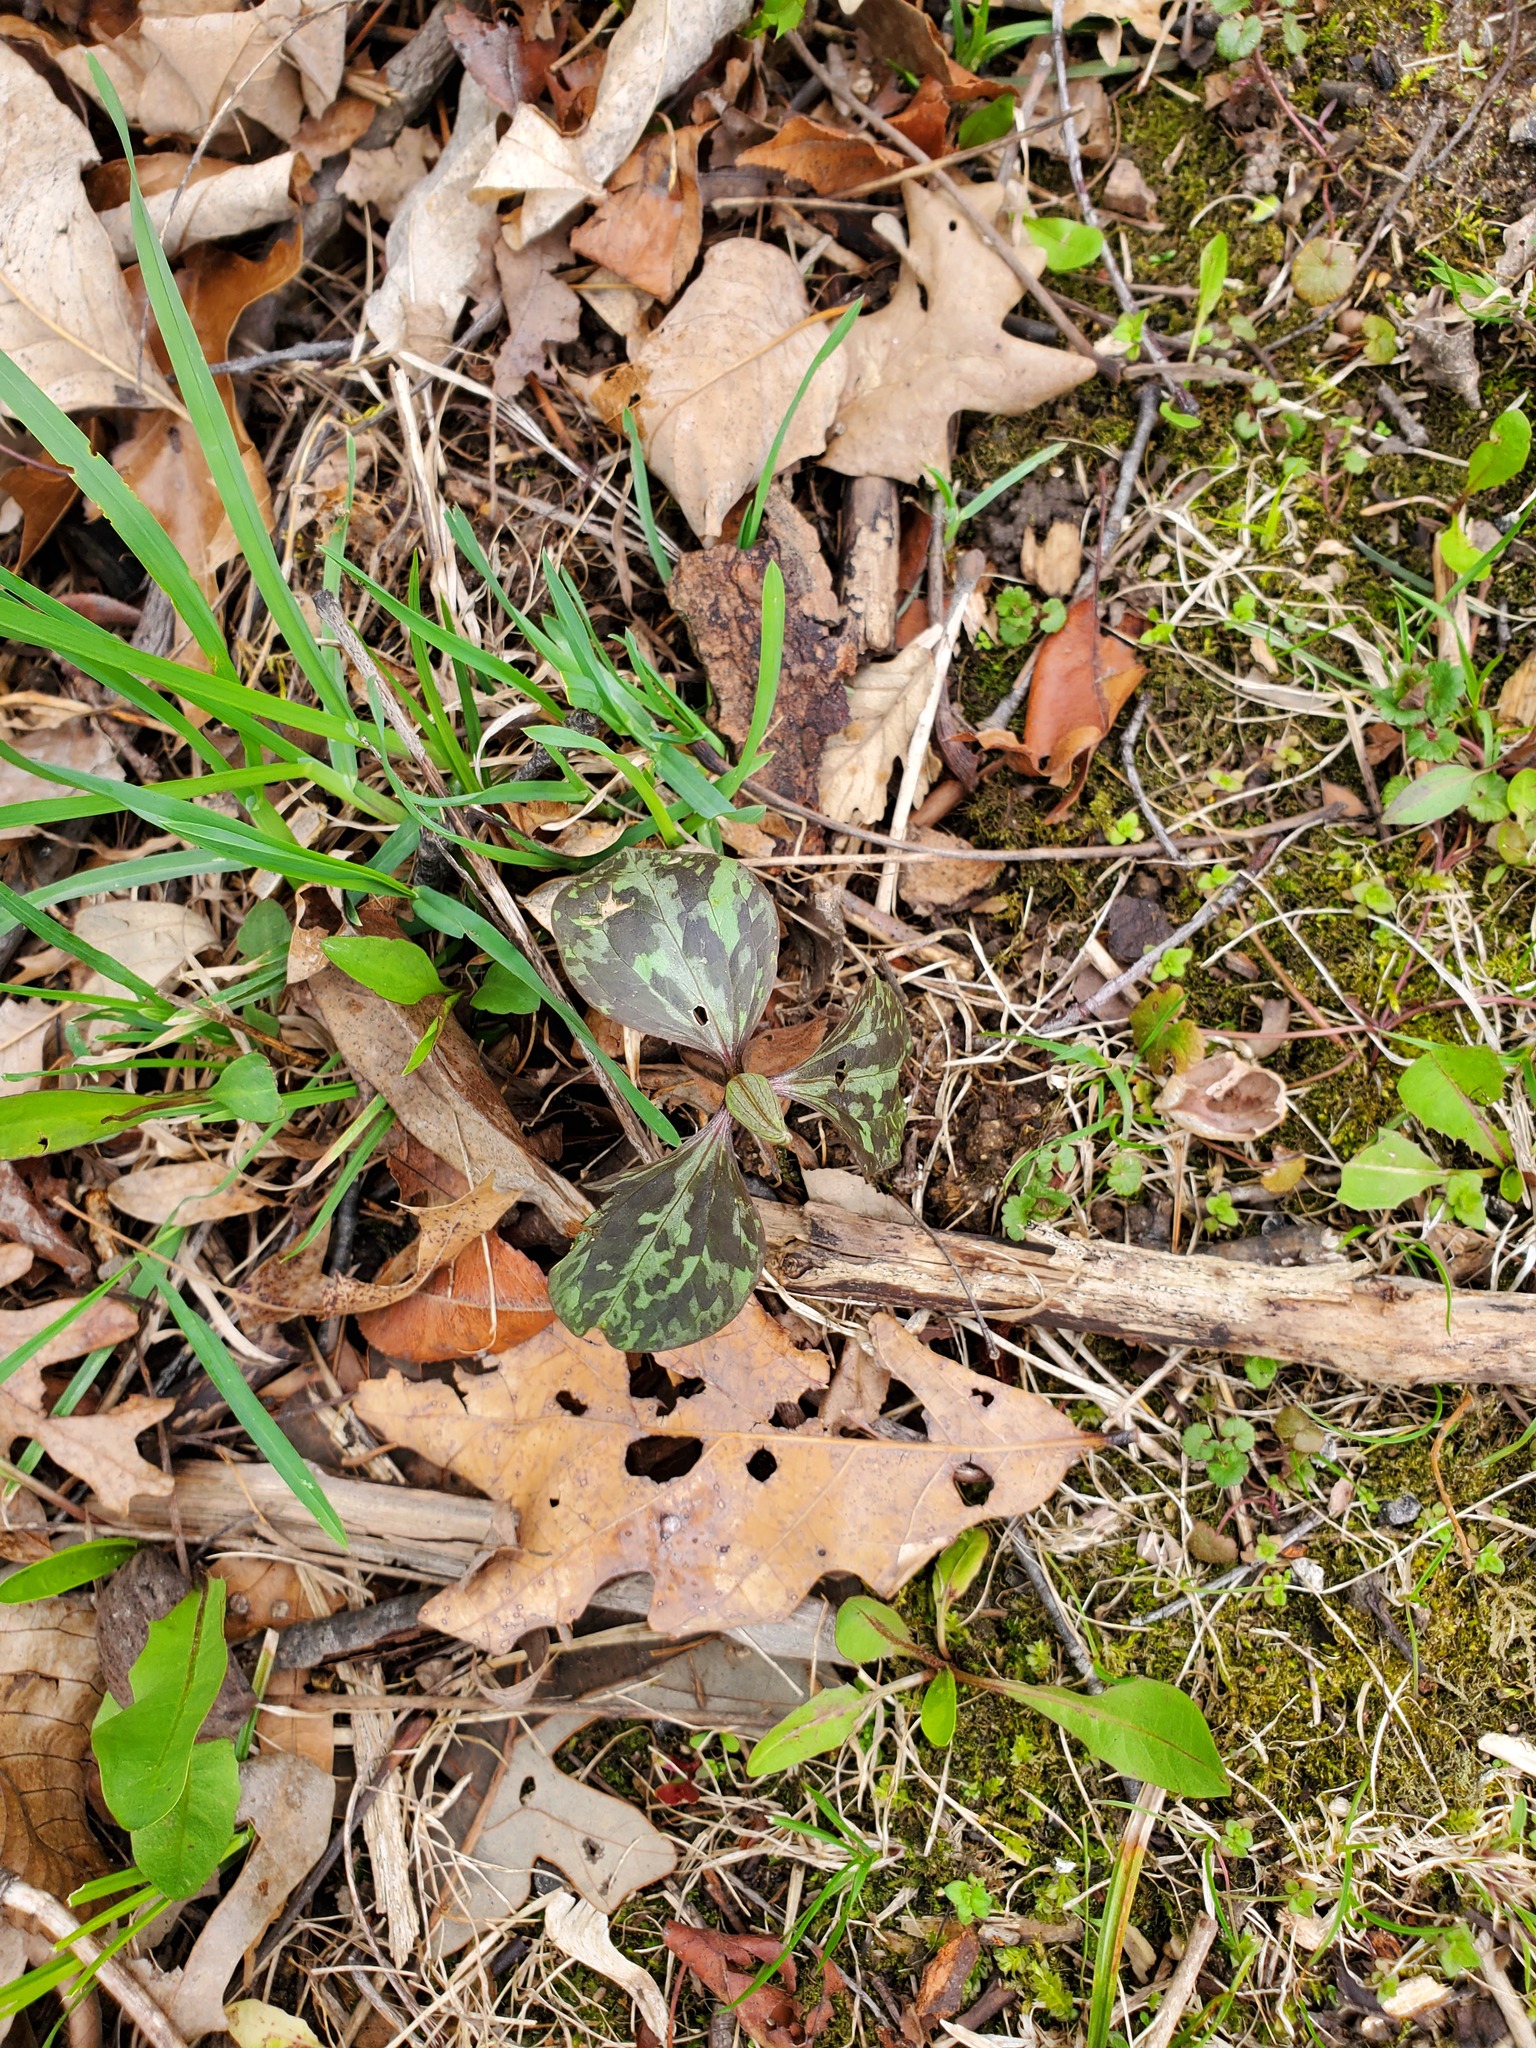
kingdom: Plantae
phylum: Tracheophyta
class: Liliopsida
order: Liliales
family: Melanthiaceae
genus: Trillium
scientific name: Trillium recurvatum
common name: Bloody butcher
